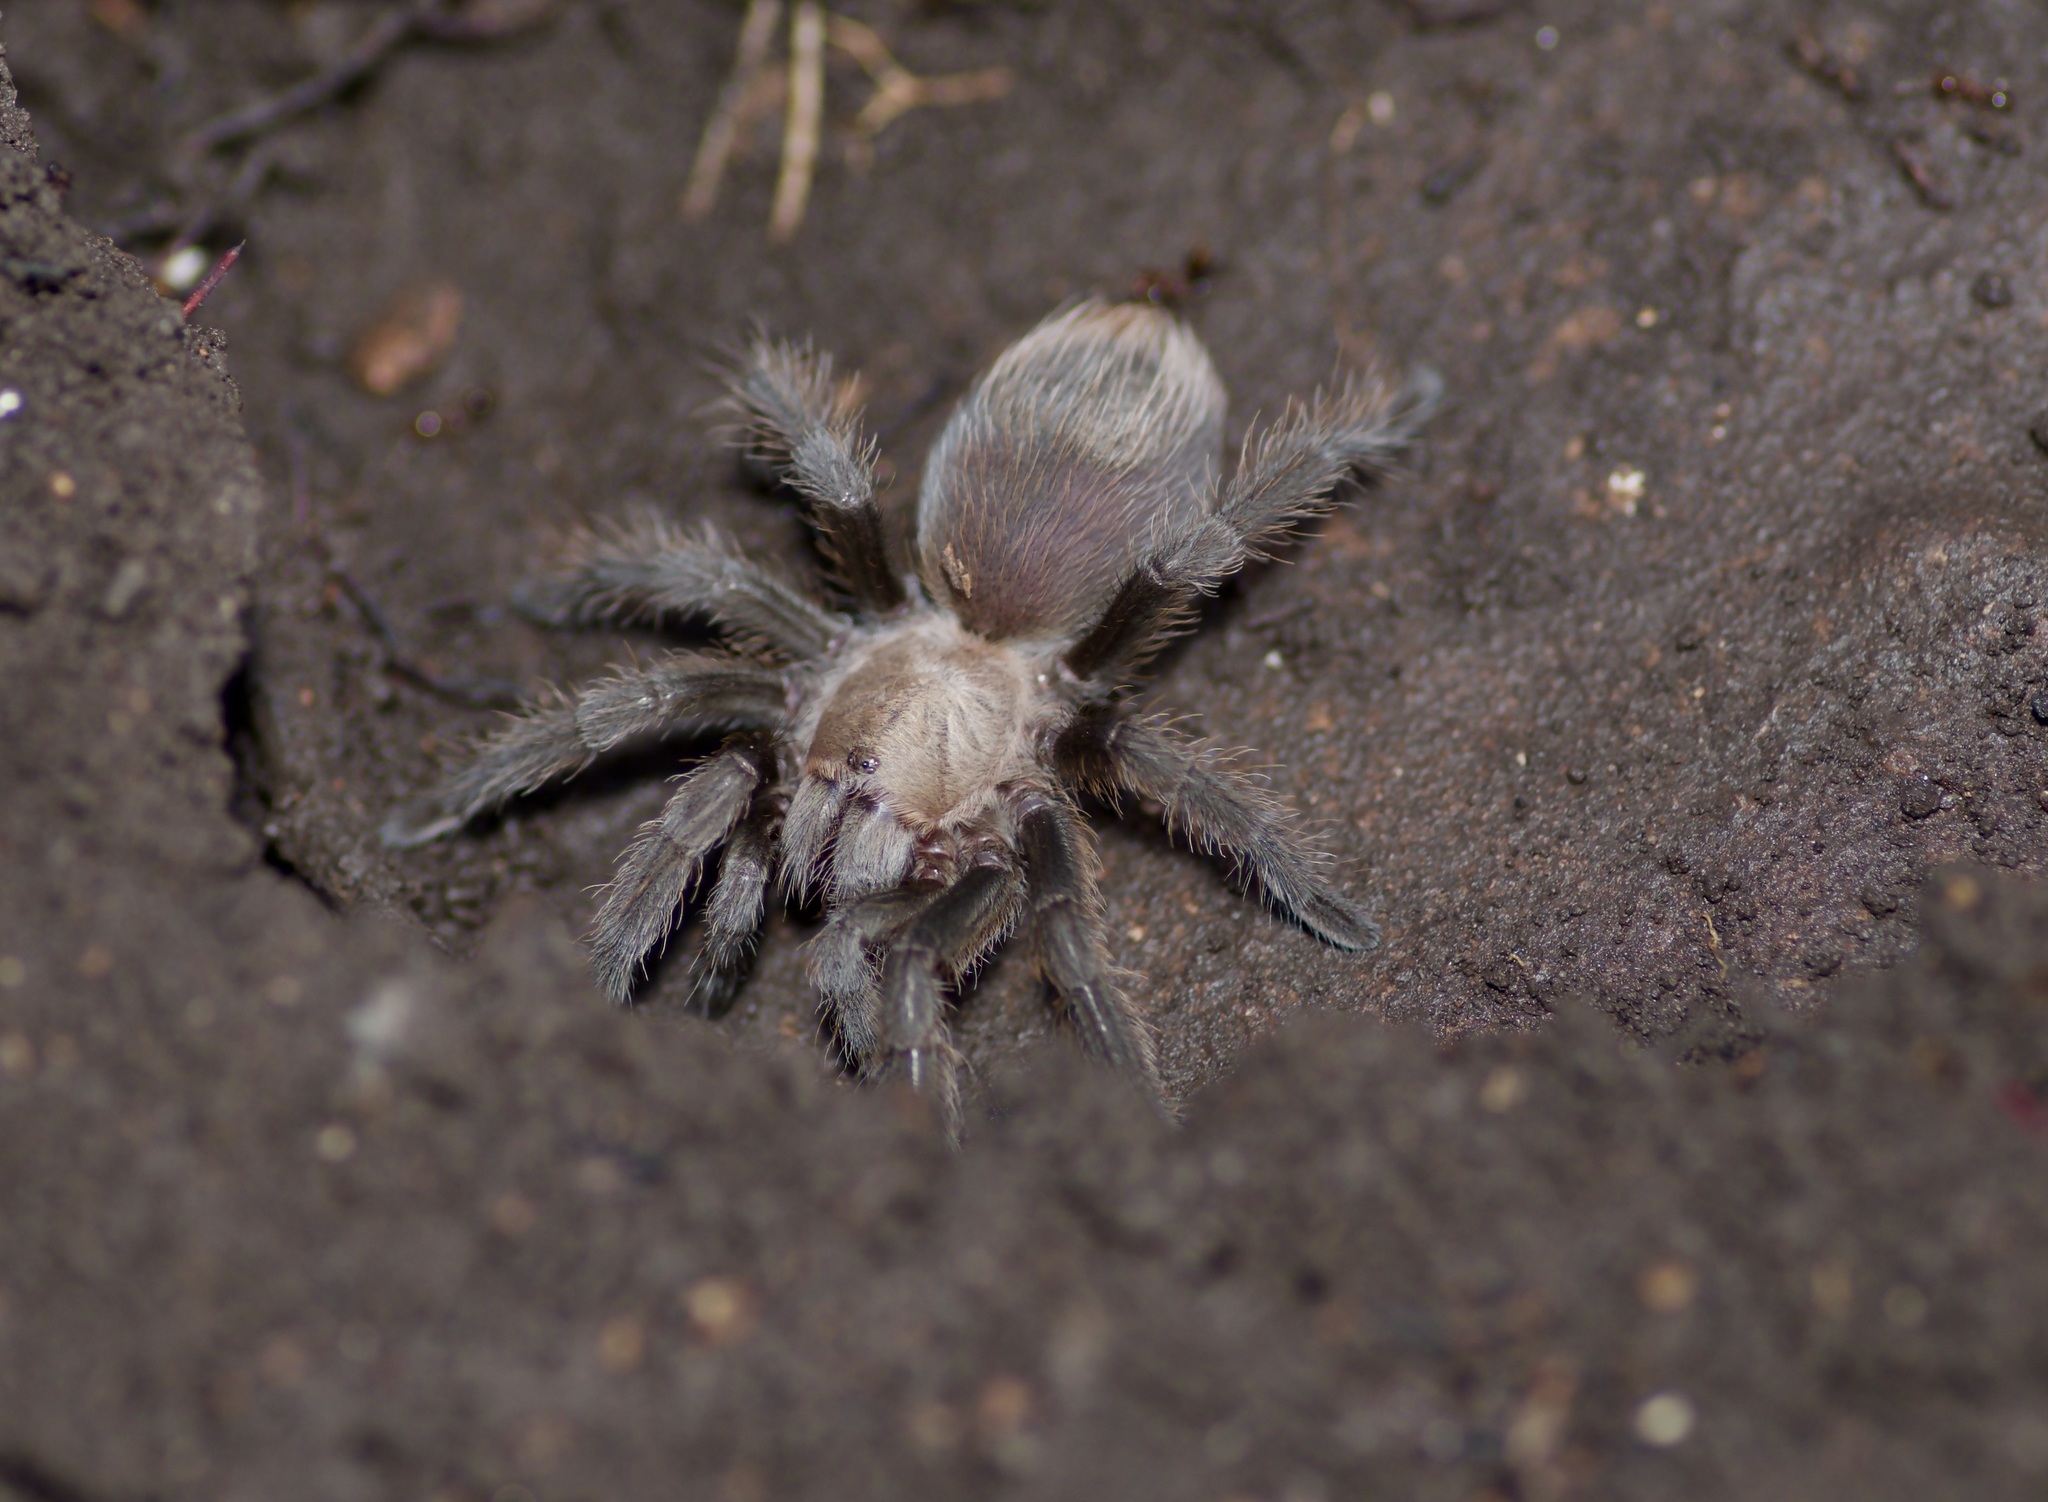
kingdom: Animalia
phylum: Arthropoda
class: Arachnida
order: Araneae
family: Theraphosidae
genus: Aphonopelma
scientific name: Aphonopelma hentzi
